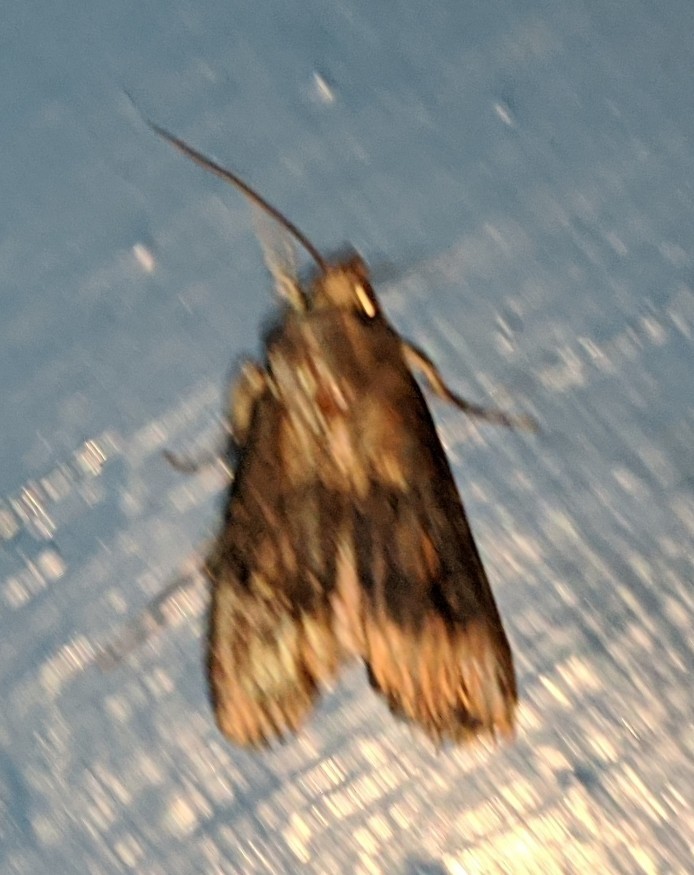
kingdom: Animalia
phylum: Arthropoda
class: Insecta
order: Lepidoptera
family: Noctuidae
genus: Agrotis
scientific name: Agrotis ipsilon
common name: Dark sword-grass
